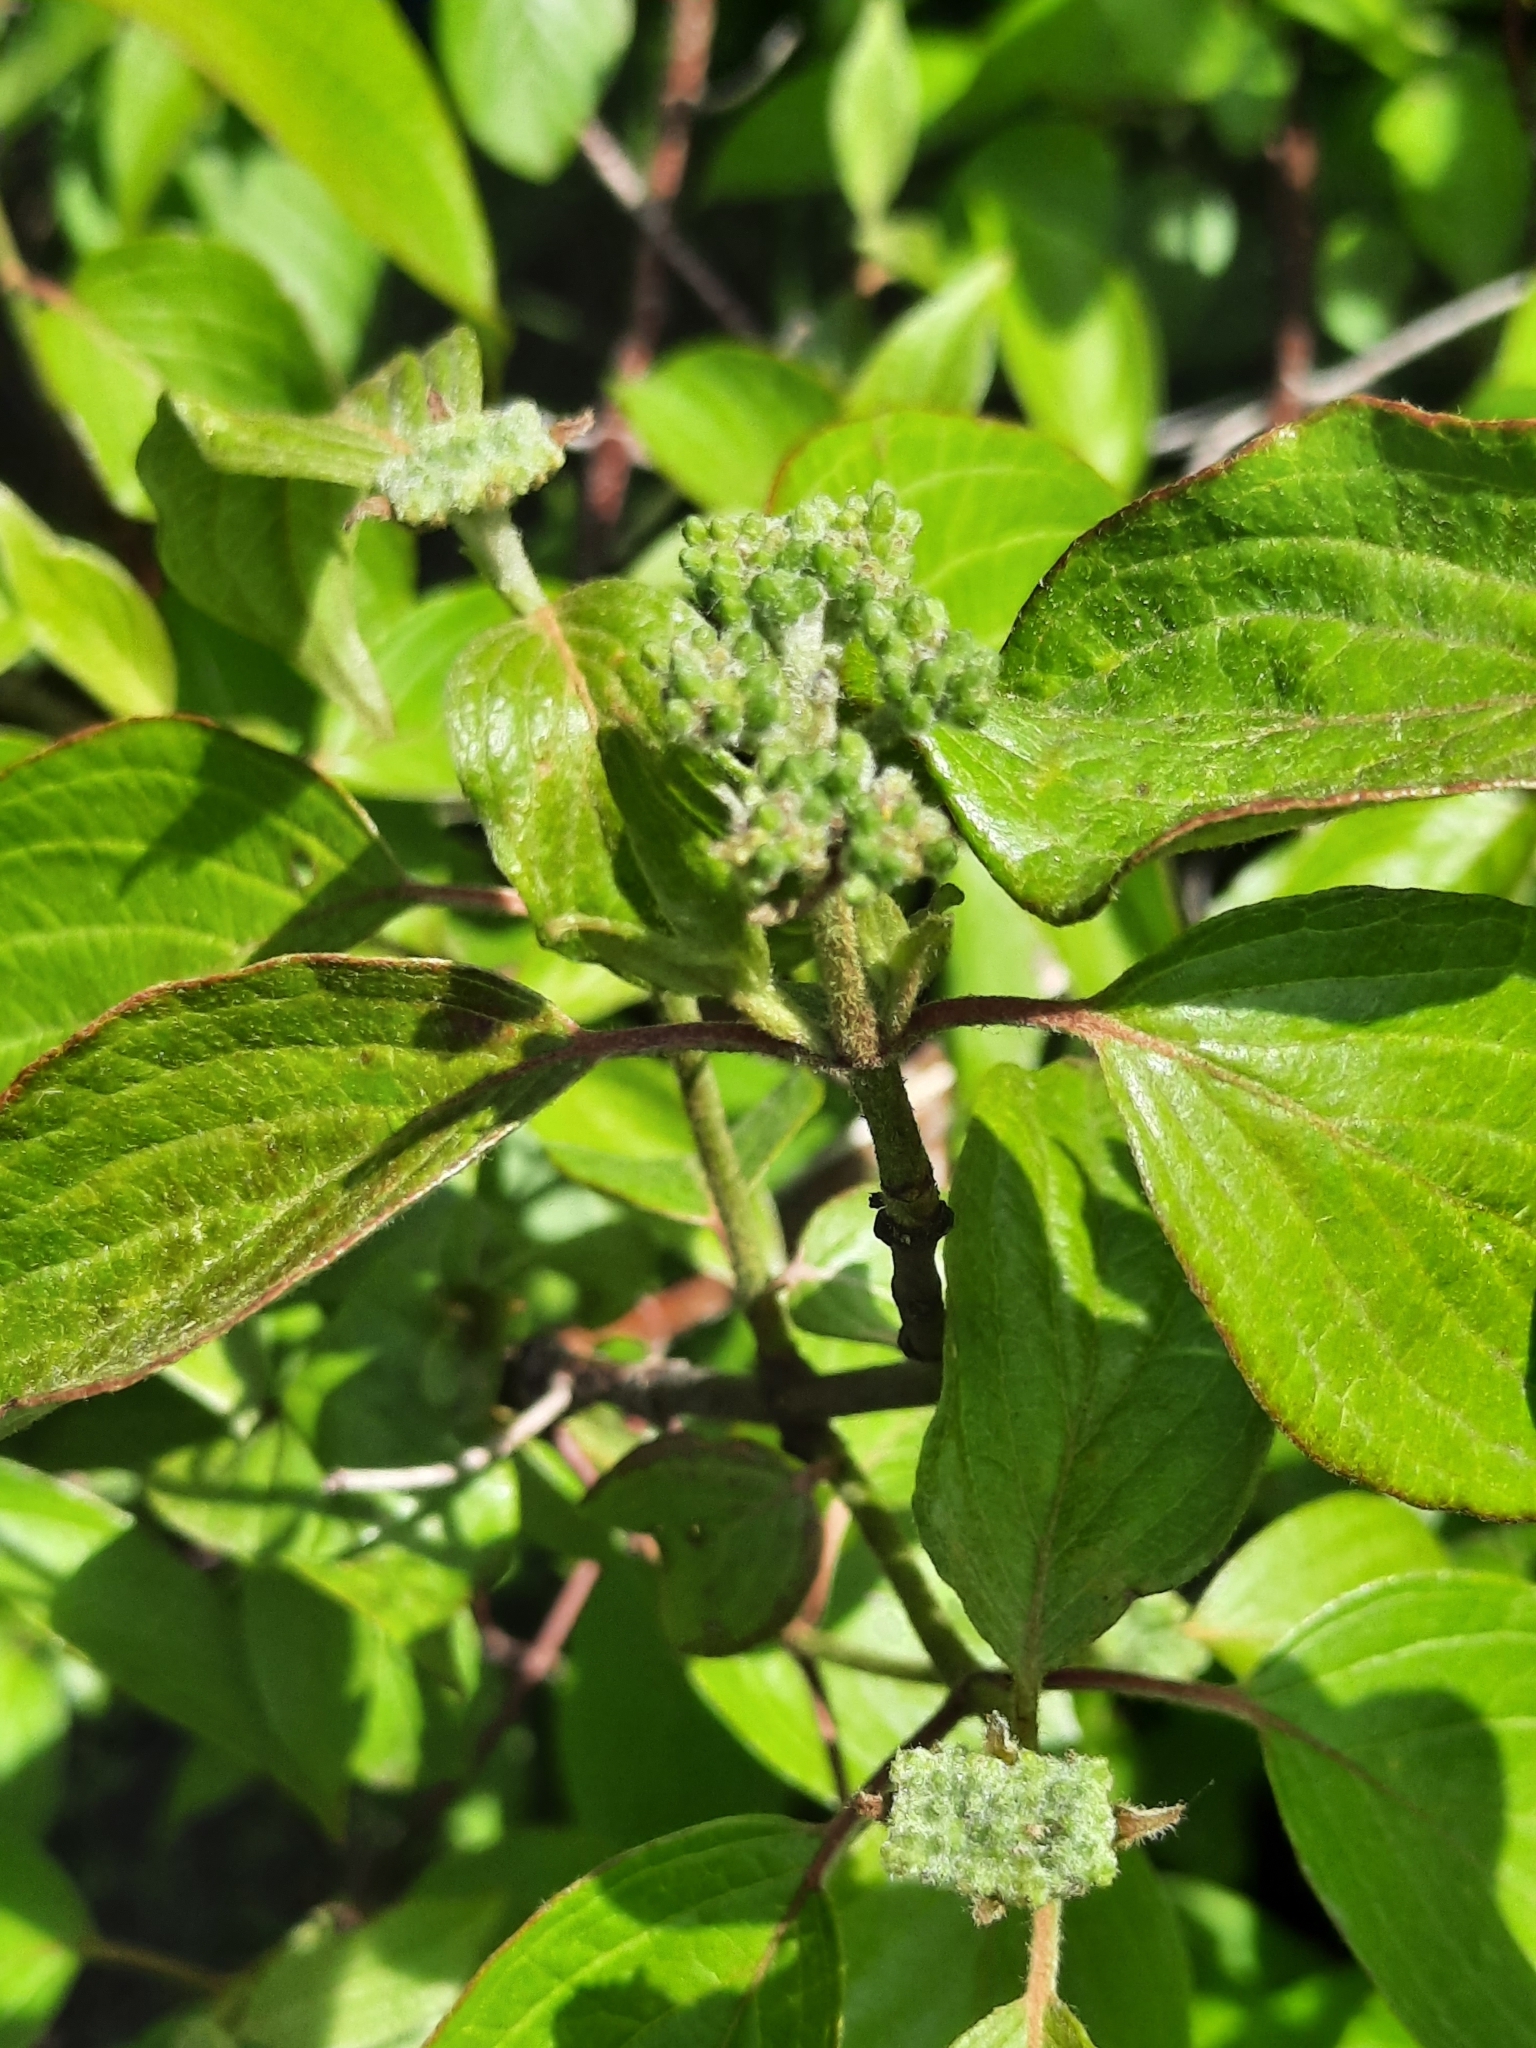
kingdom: Plantae
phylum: Tracheophyta
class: Magnoliopsida
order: Cornales
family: Cornaceae
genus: Cornus
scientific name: Cornus amomum
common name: Silky dogwood
